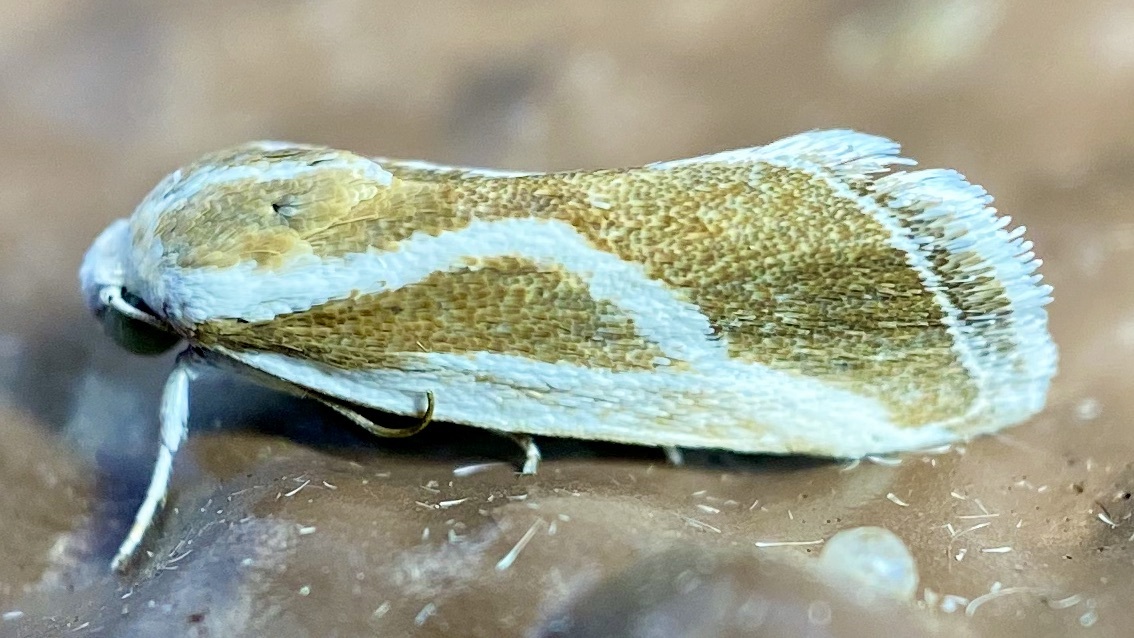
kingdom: Animalia
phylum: Arthropoda
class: Insecta
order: Lepidoptera
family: Noctuidae
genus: Acontia
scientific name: Acontia alata
